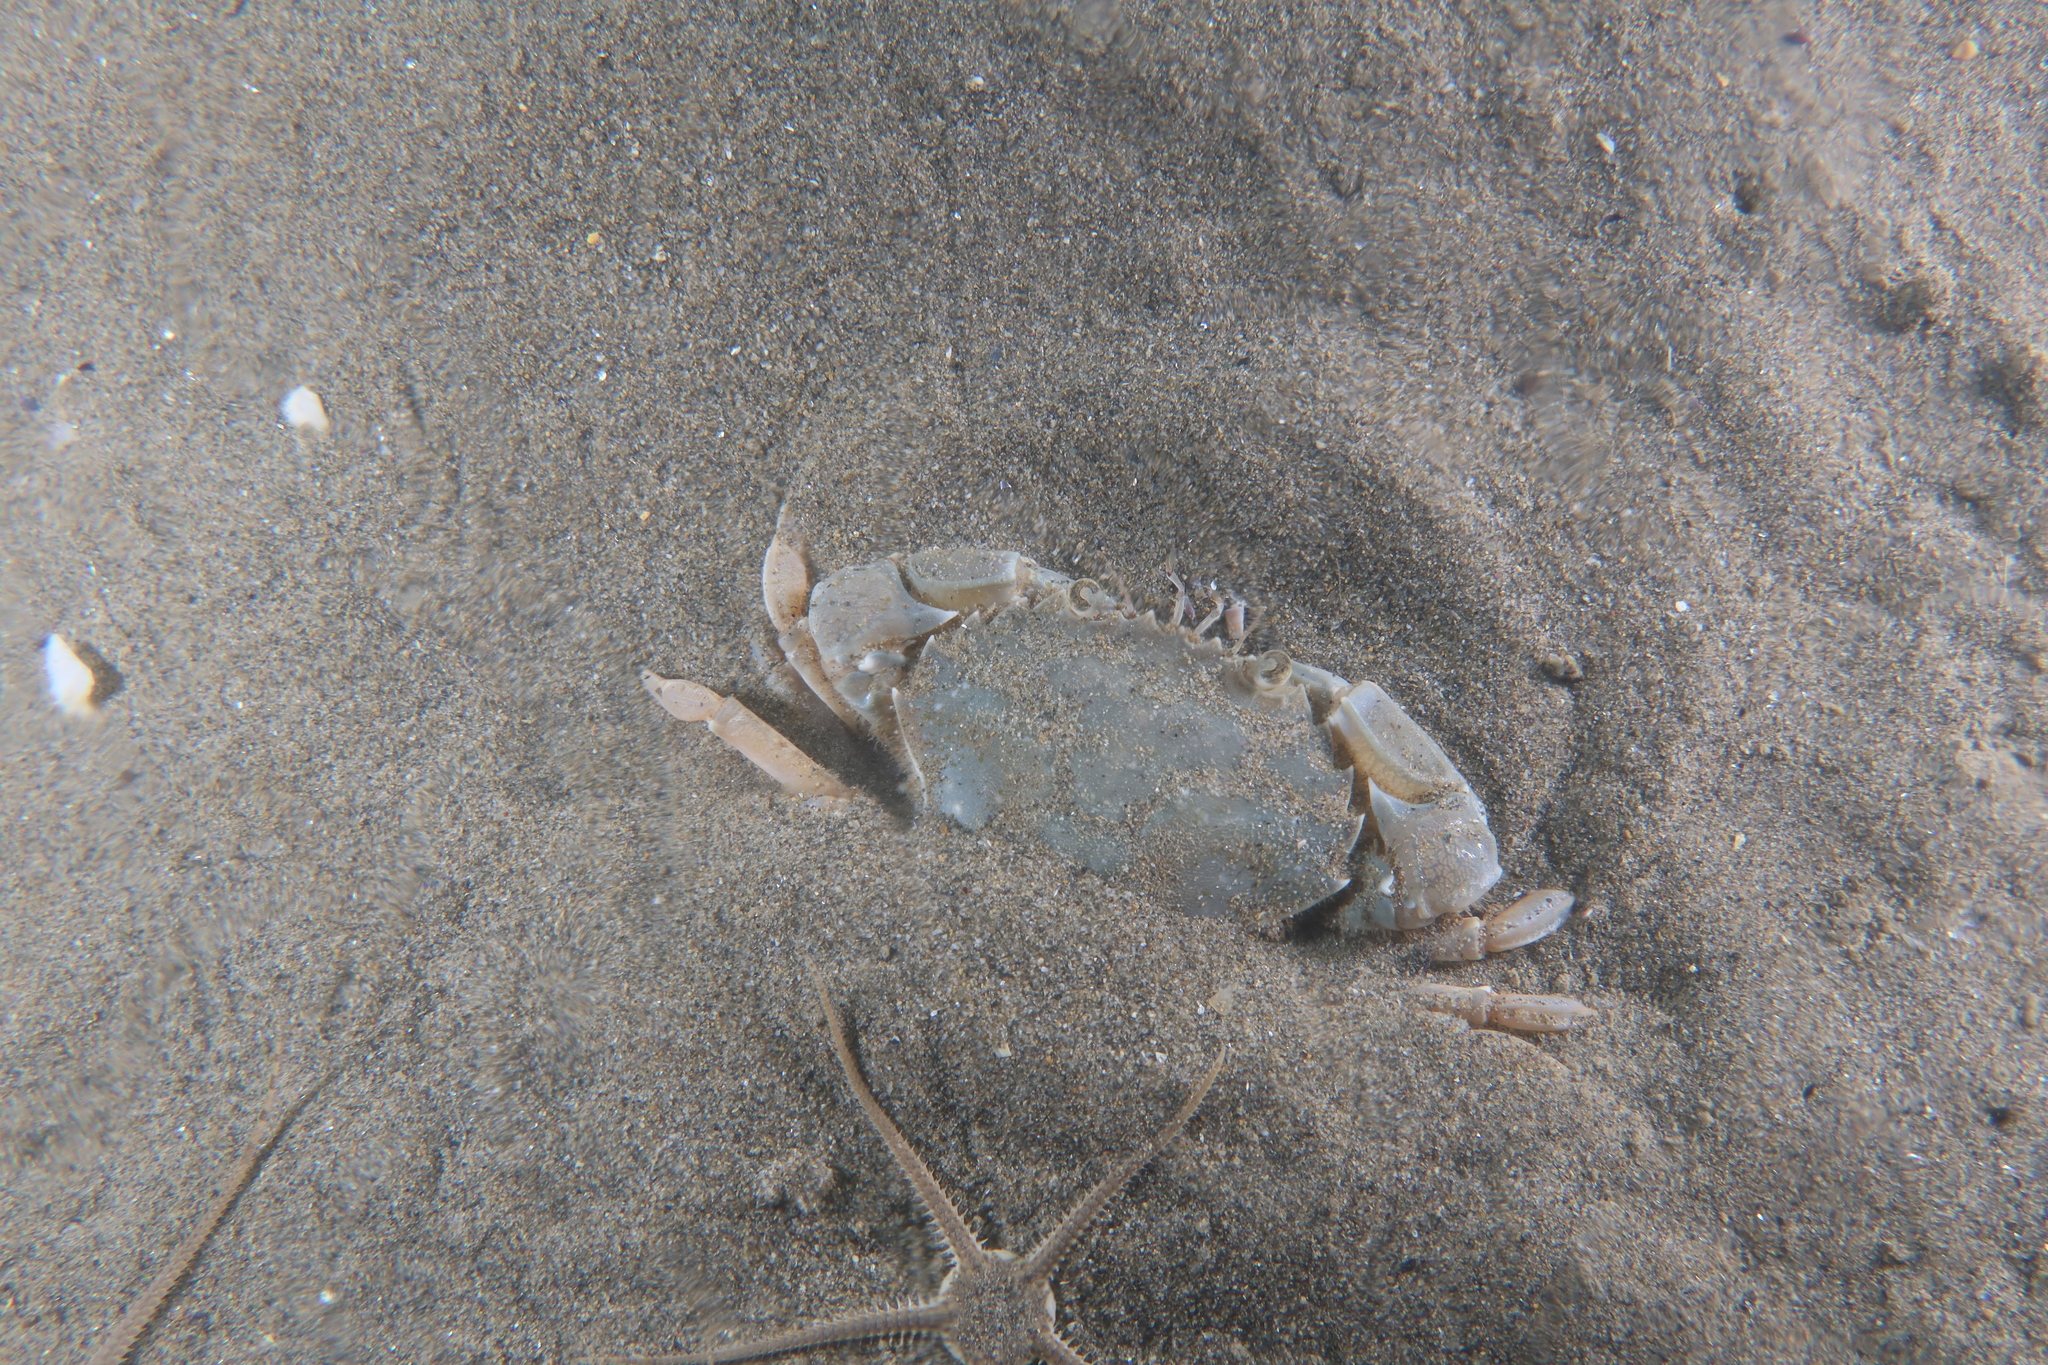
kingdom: Animalia
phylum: Arthropoda
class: Malacostraca
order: Decapoda
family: Polybiidae
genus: Liocarcinus
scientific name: Liocarcinus vernalis
